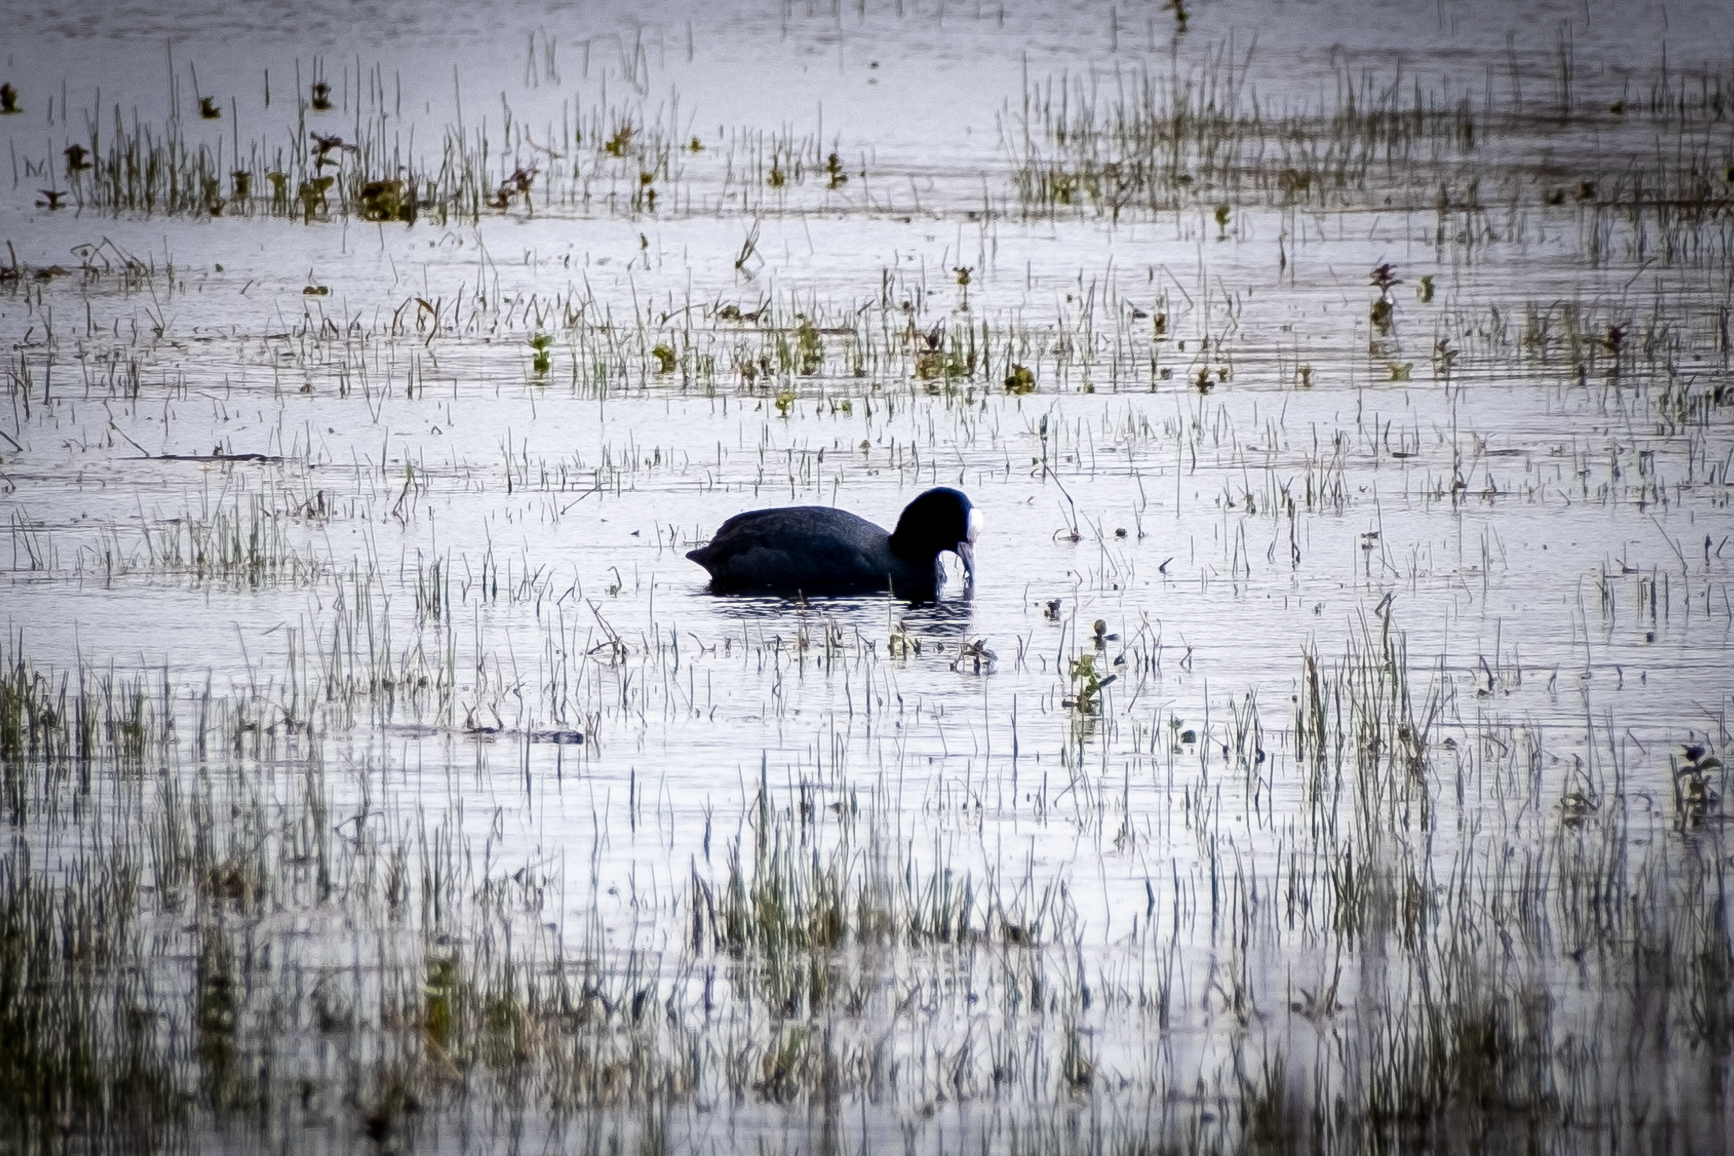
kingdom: Animalia
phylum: Chordata
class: Aves
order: Gruiformes
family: Rallidae
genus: Fulica
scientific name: Fulica atra
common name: Eurasian coot
